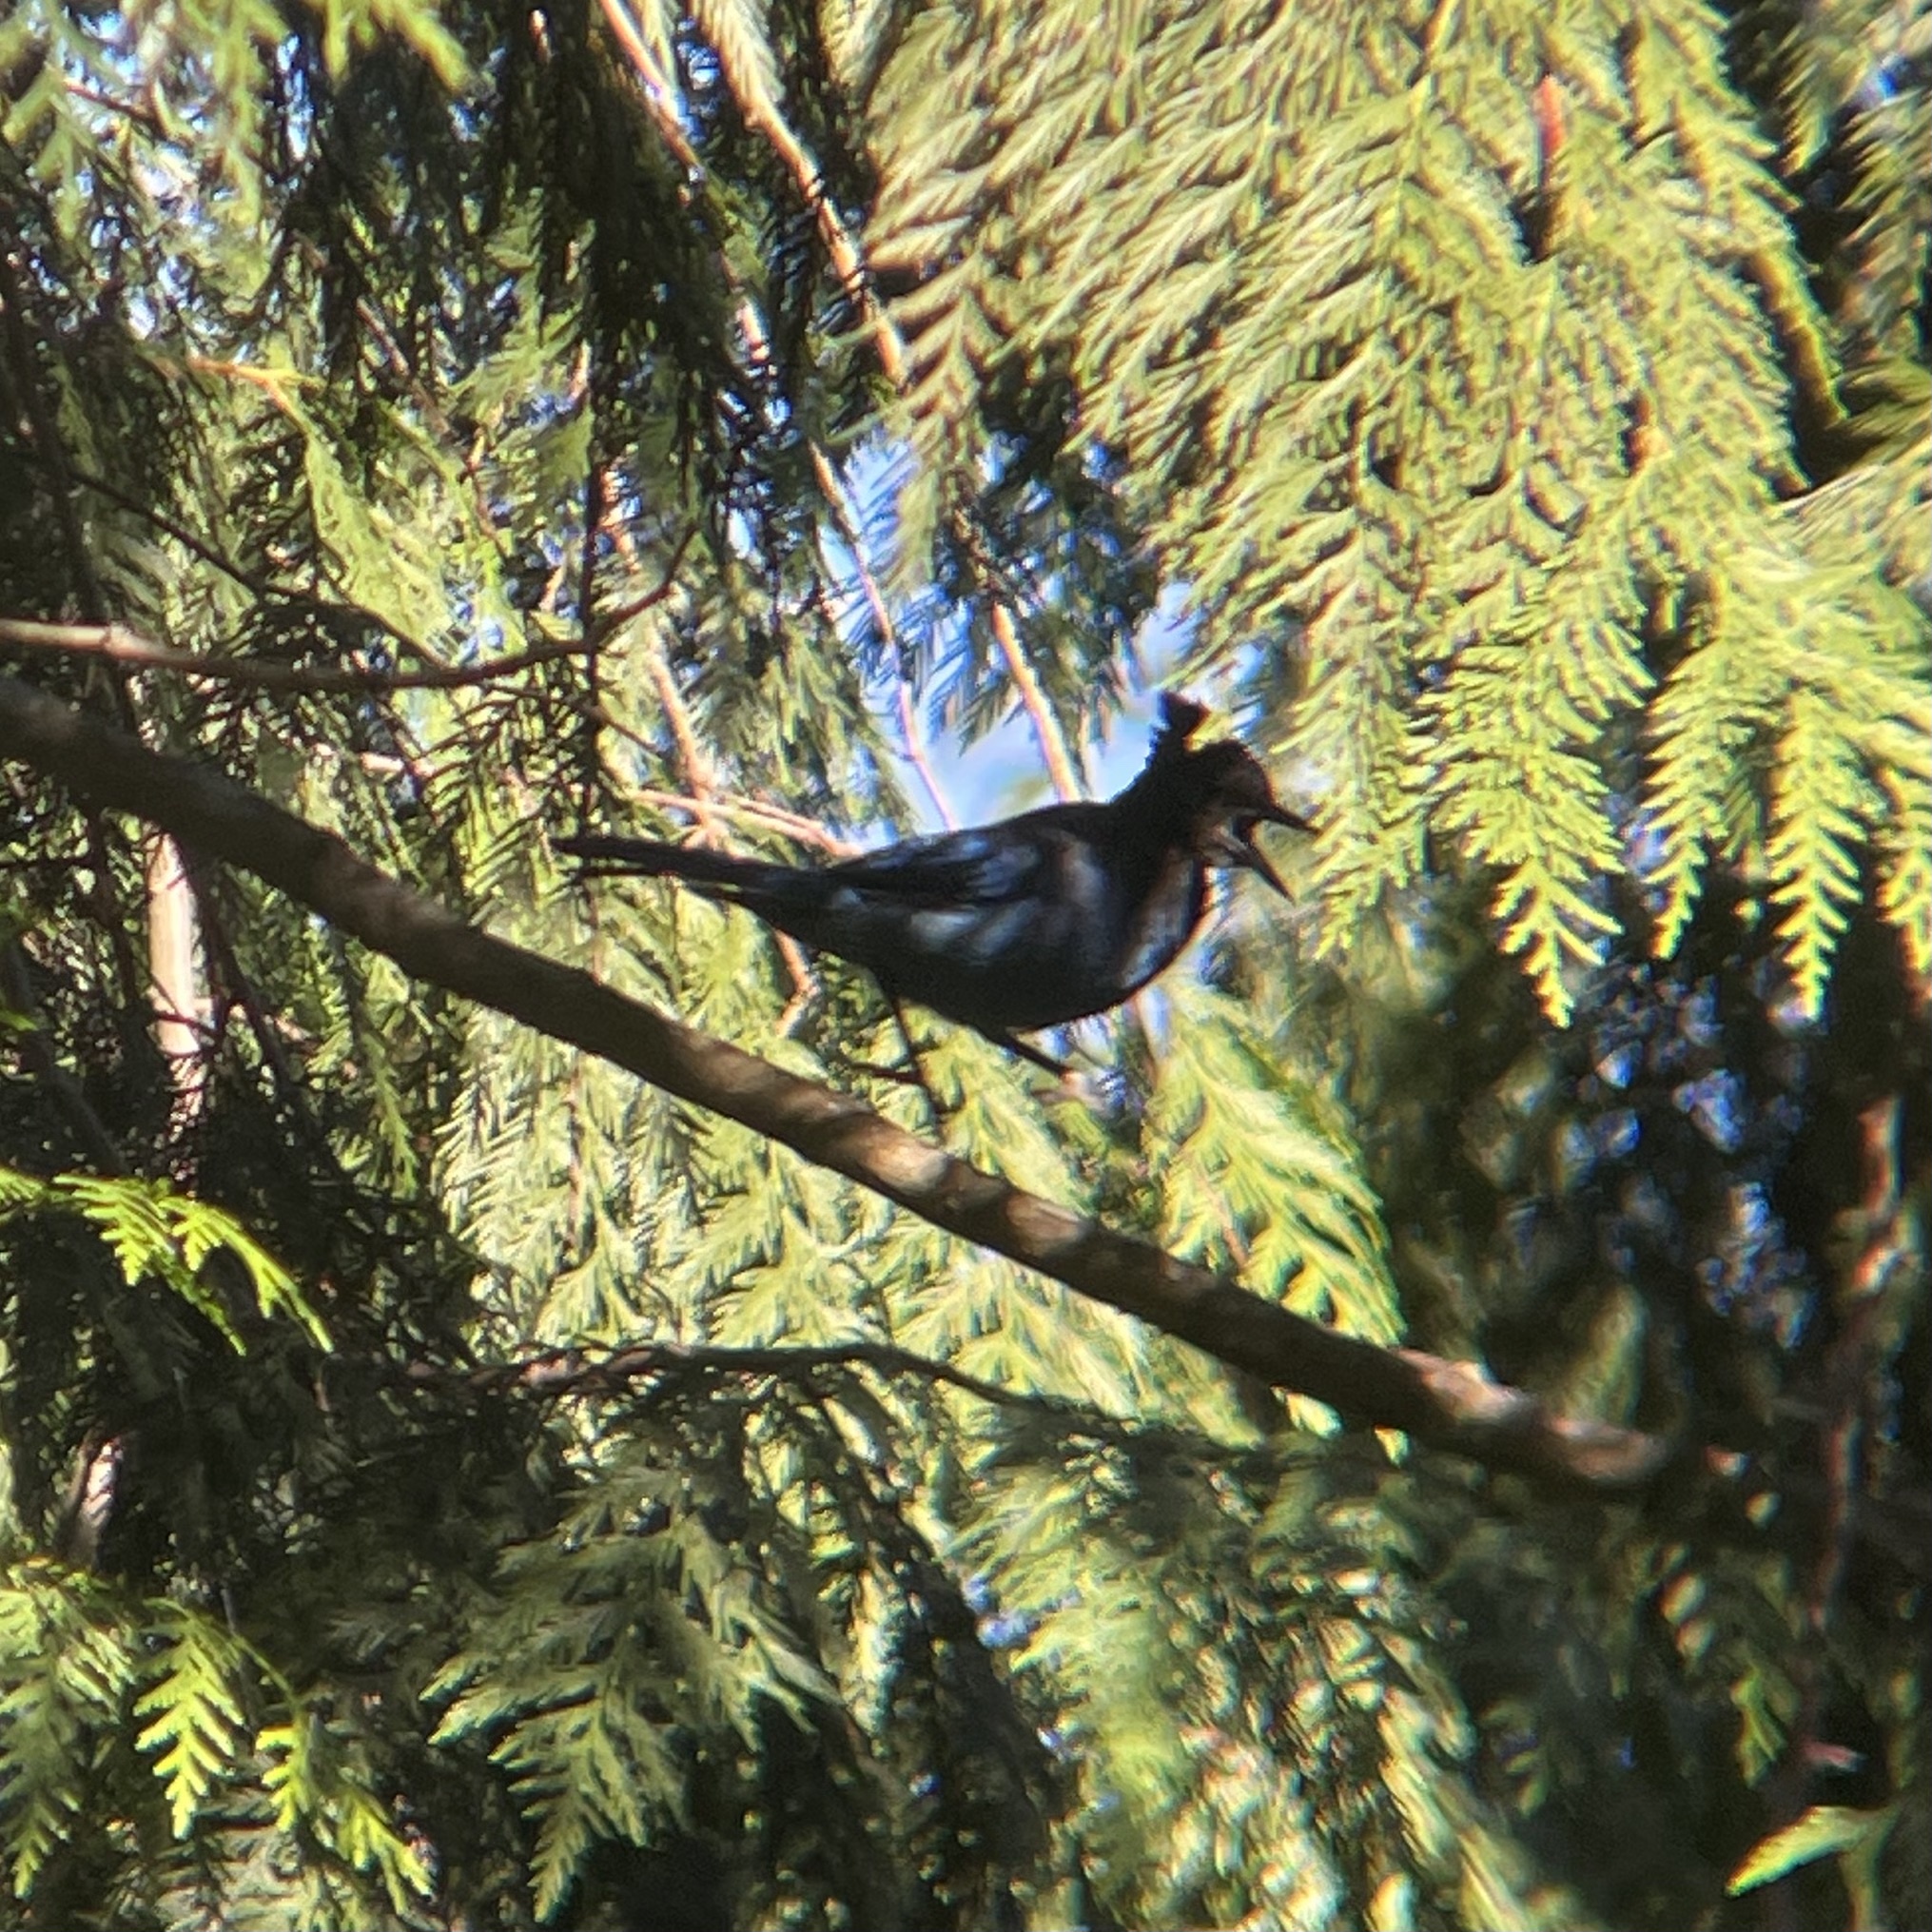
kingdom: Animalia
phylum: Chordata
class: Aves
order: Passeriformes
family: Corvidae
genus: Cyanocitta
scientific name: Cyanocitta stelleri
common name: Steller's jay
